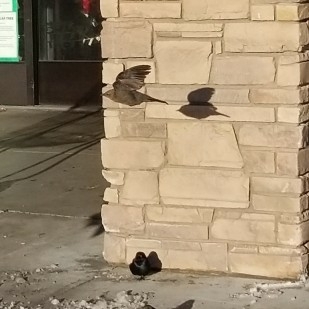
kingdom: Animalia
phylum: Chordata
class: Aves
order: Passeriformes
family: Icteridae
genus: Euphagus
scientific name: Euphagus cyanocephalus
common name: Brewer's blackbird
